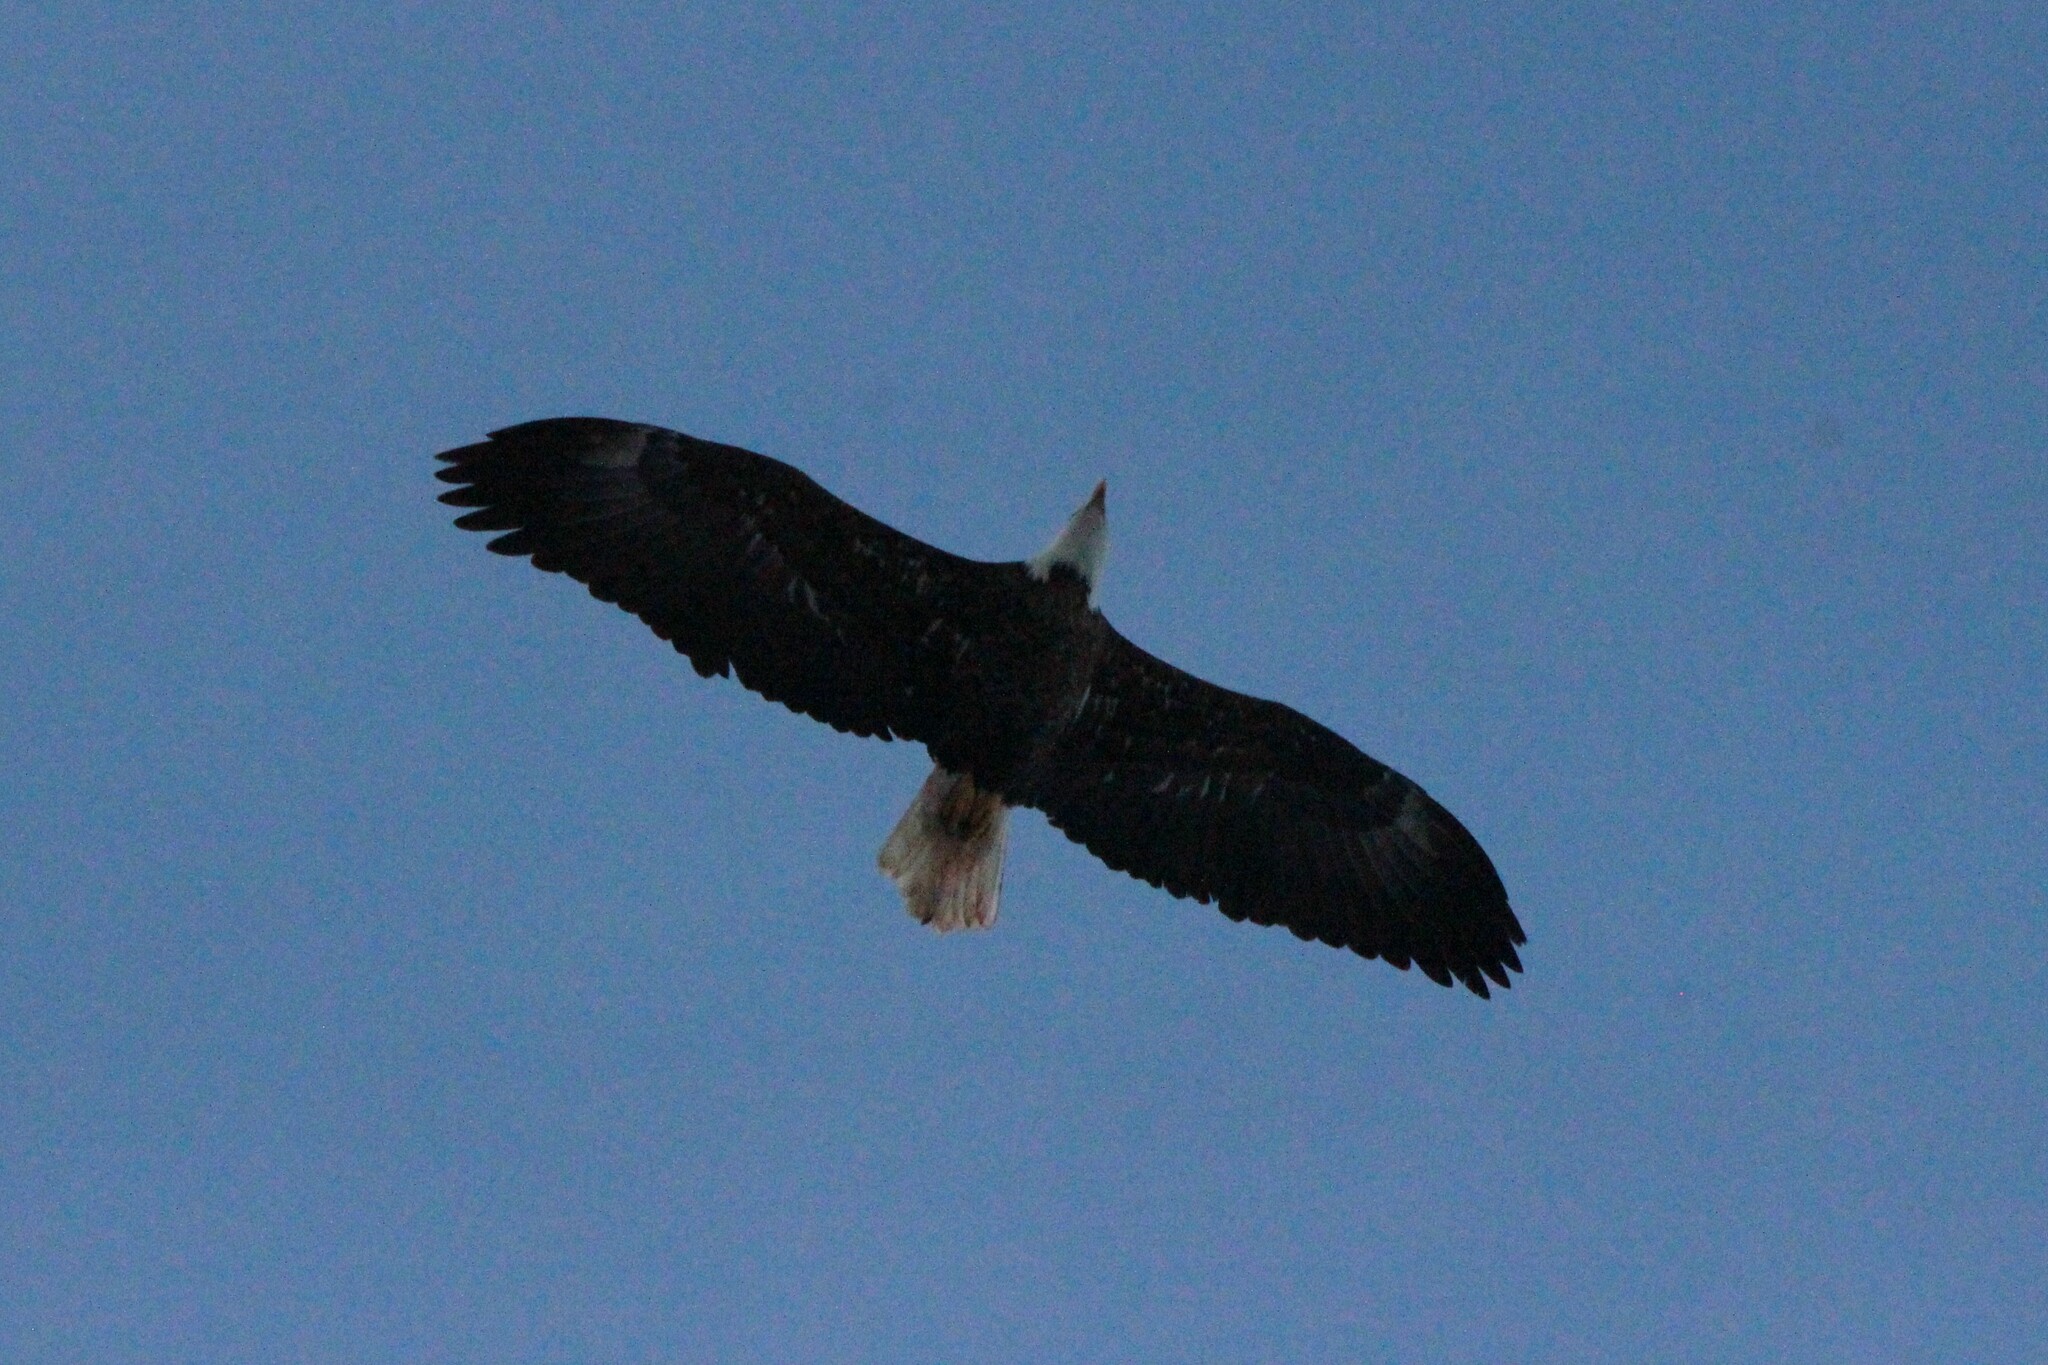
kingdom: Animalia
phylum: Chordata
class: Aves
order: Accipitriformes
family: Accipitridae
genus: Haliaeetus
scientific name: Haliaeetus leucocephalus
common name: Bald eagle
